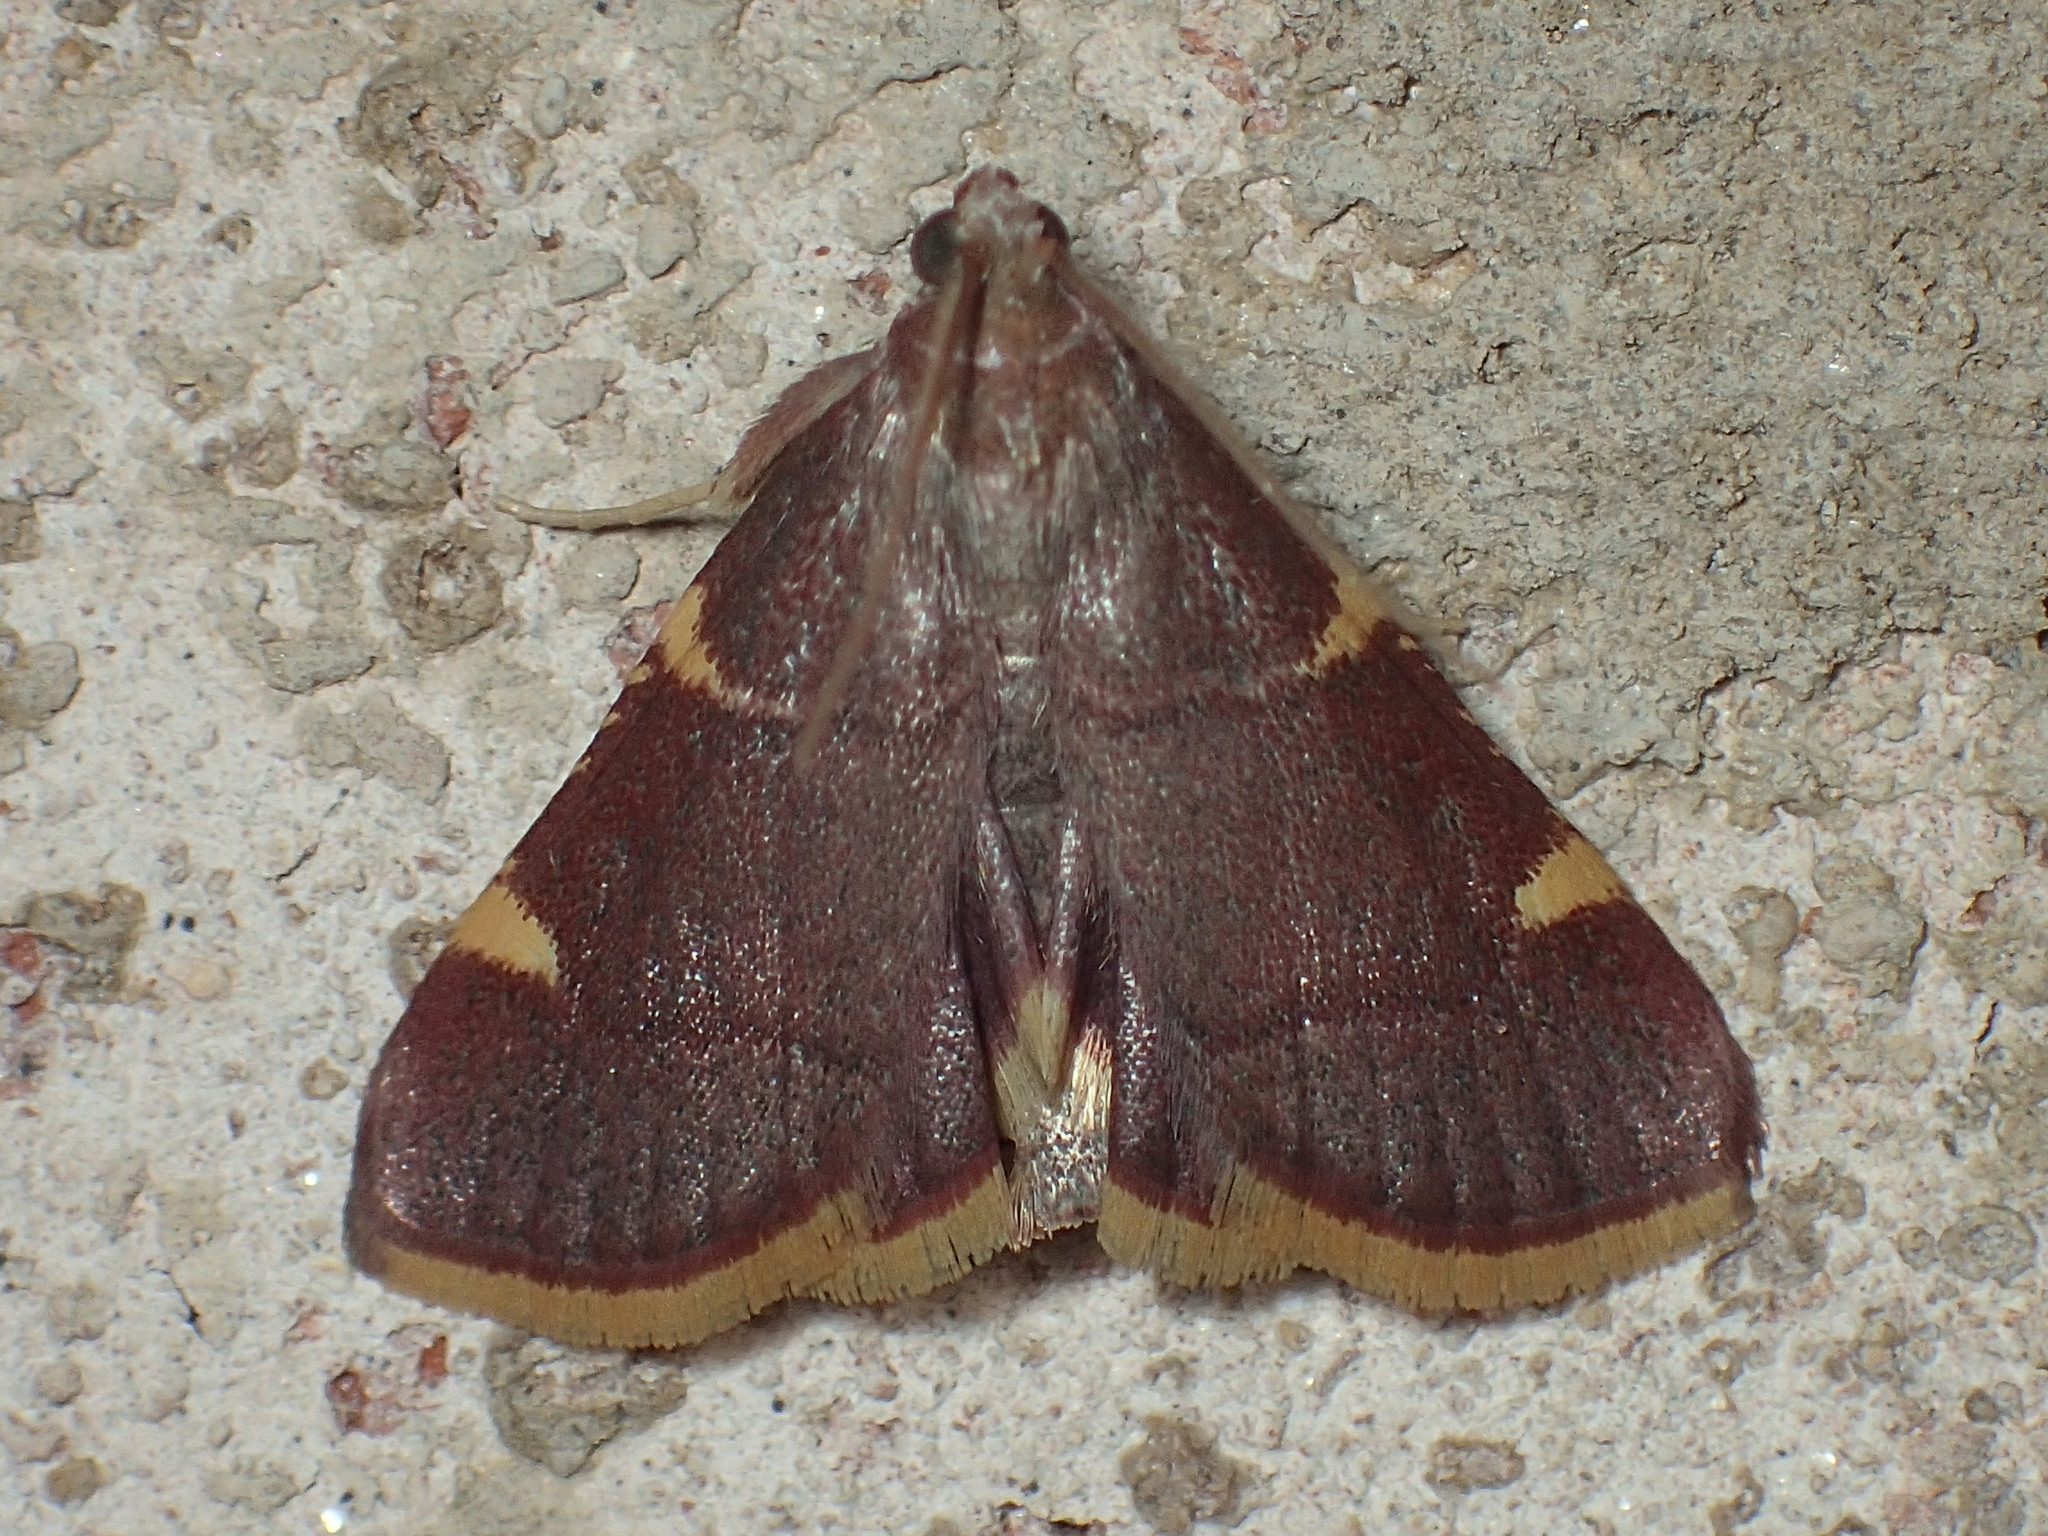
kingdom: Animalia
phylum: Arthropoda
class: Insecta
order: Lepidoptera
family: Pyralidae
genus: Hypsopygia
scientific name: Hypsopygia olinalis
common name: Yellow-fringed dolichomia moth
